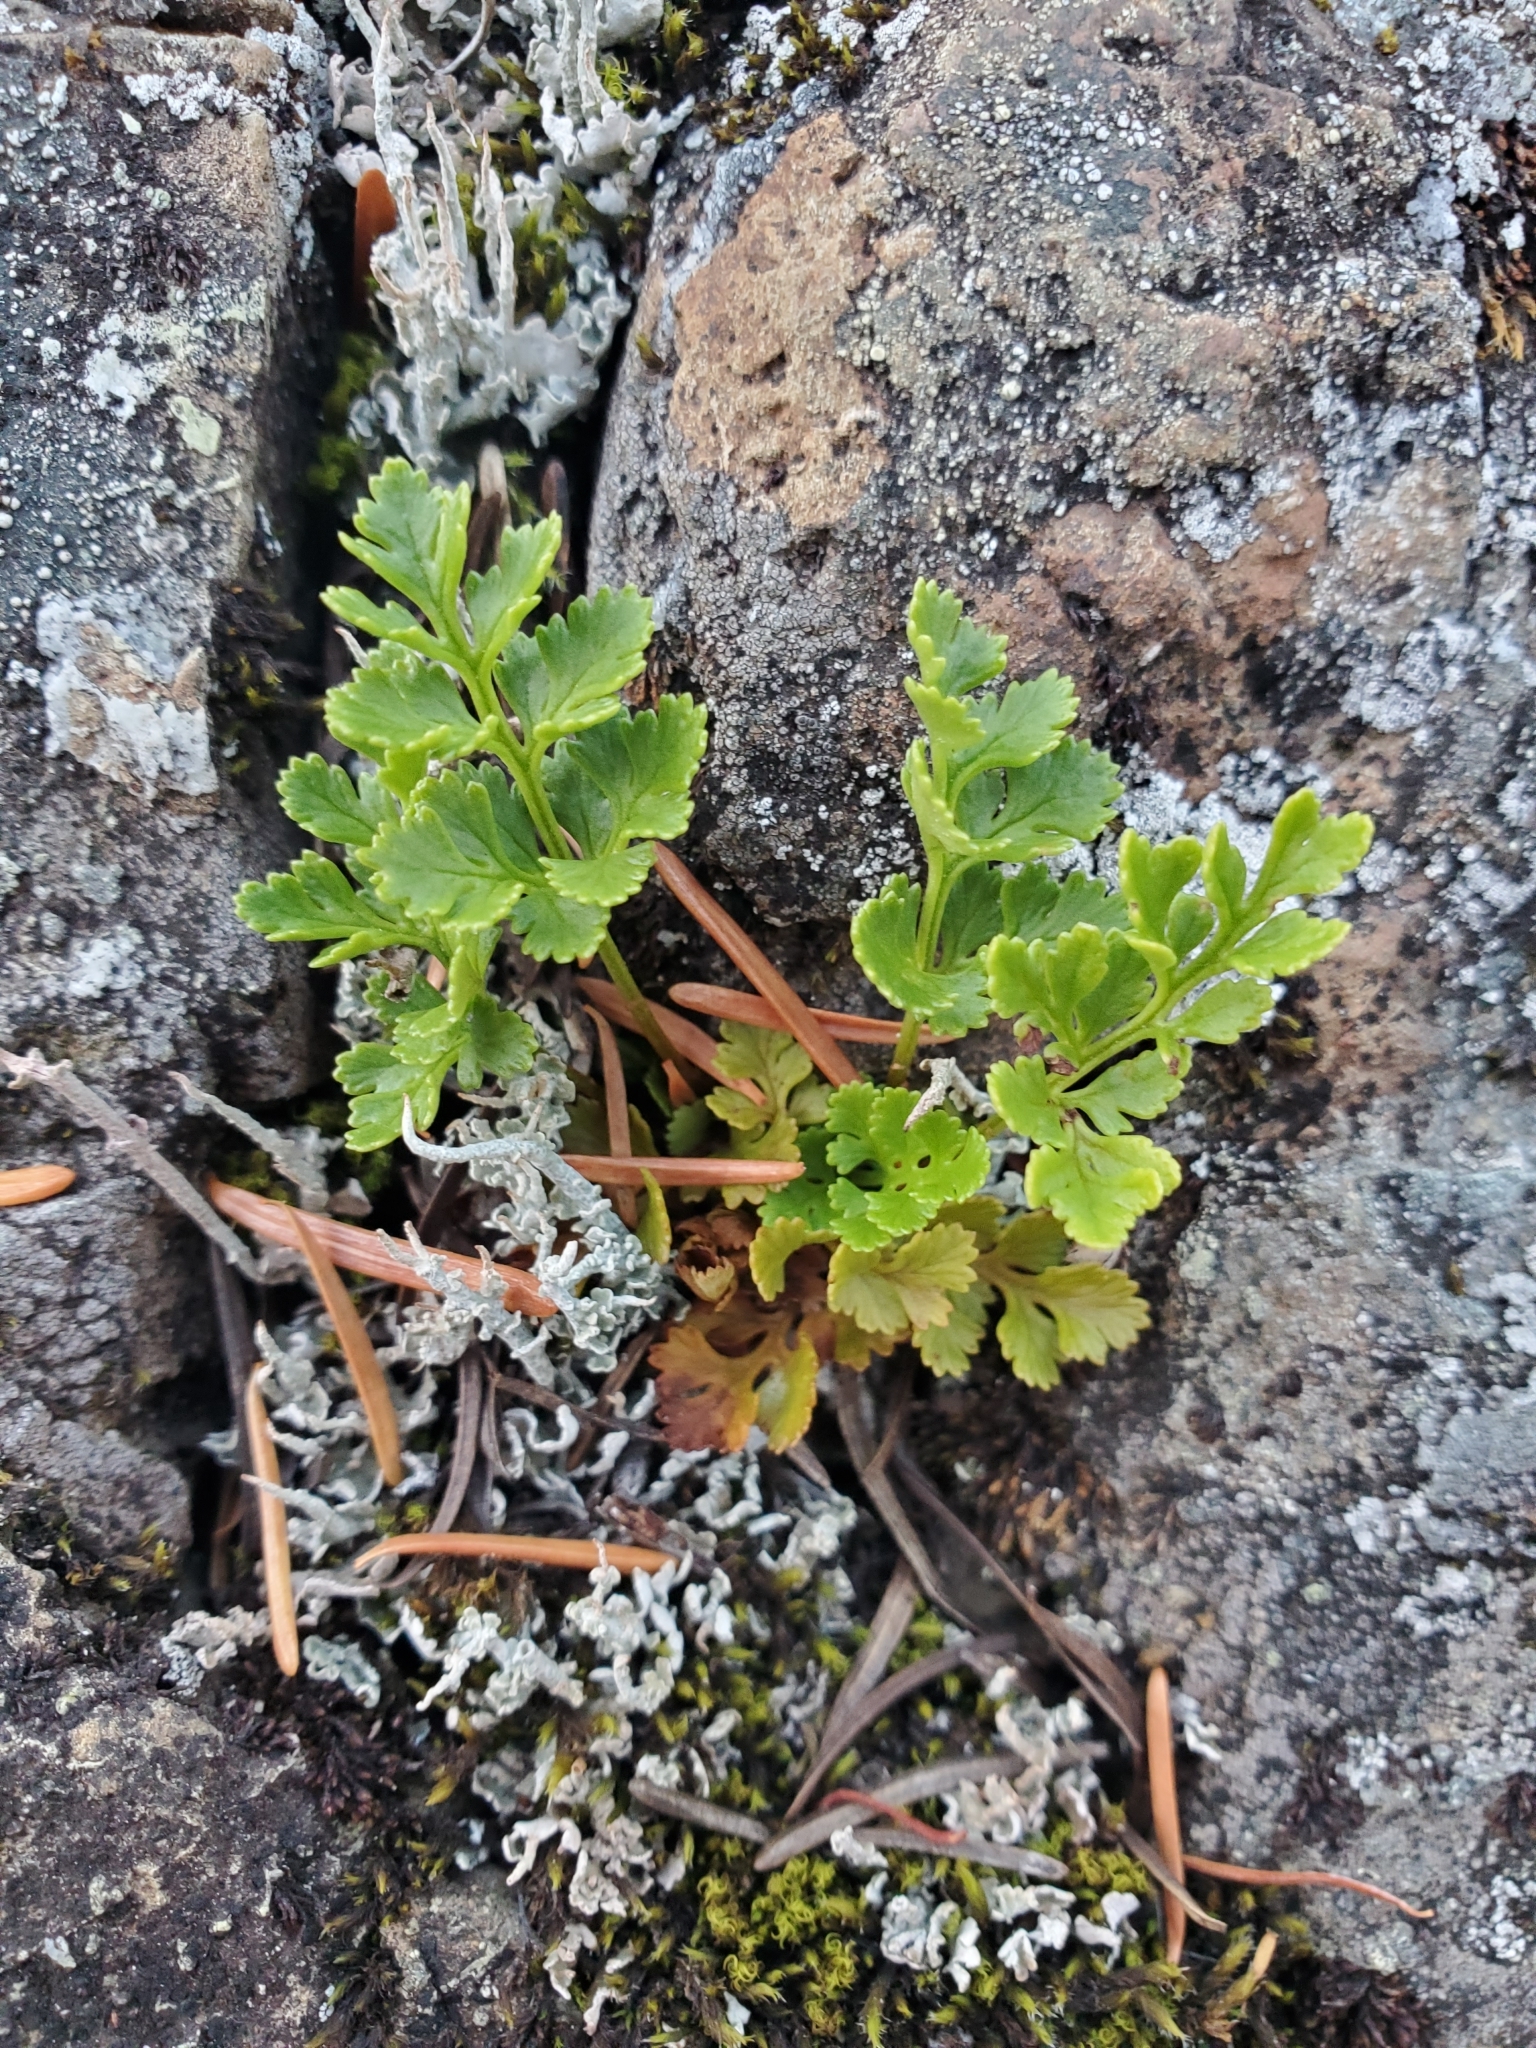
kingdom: Plantae
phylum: Tracheophyta
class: Polypodiopsida
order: Polypodiales
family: Pteridaceae
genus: Cryptogramma
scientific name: Cryptogramma acrostichoides
